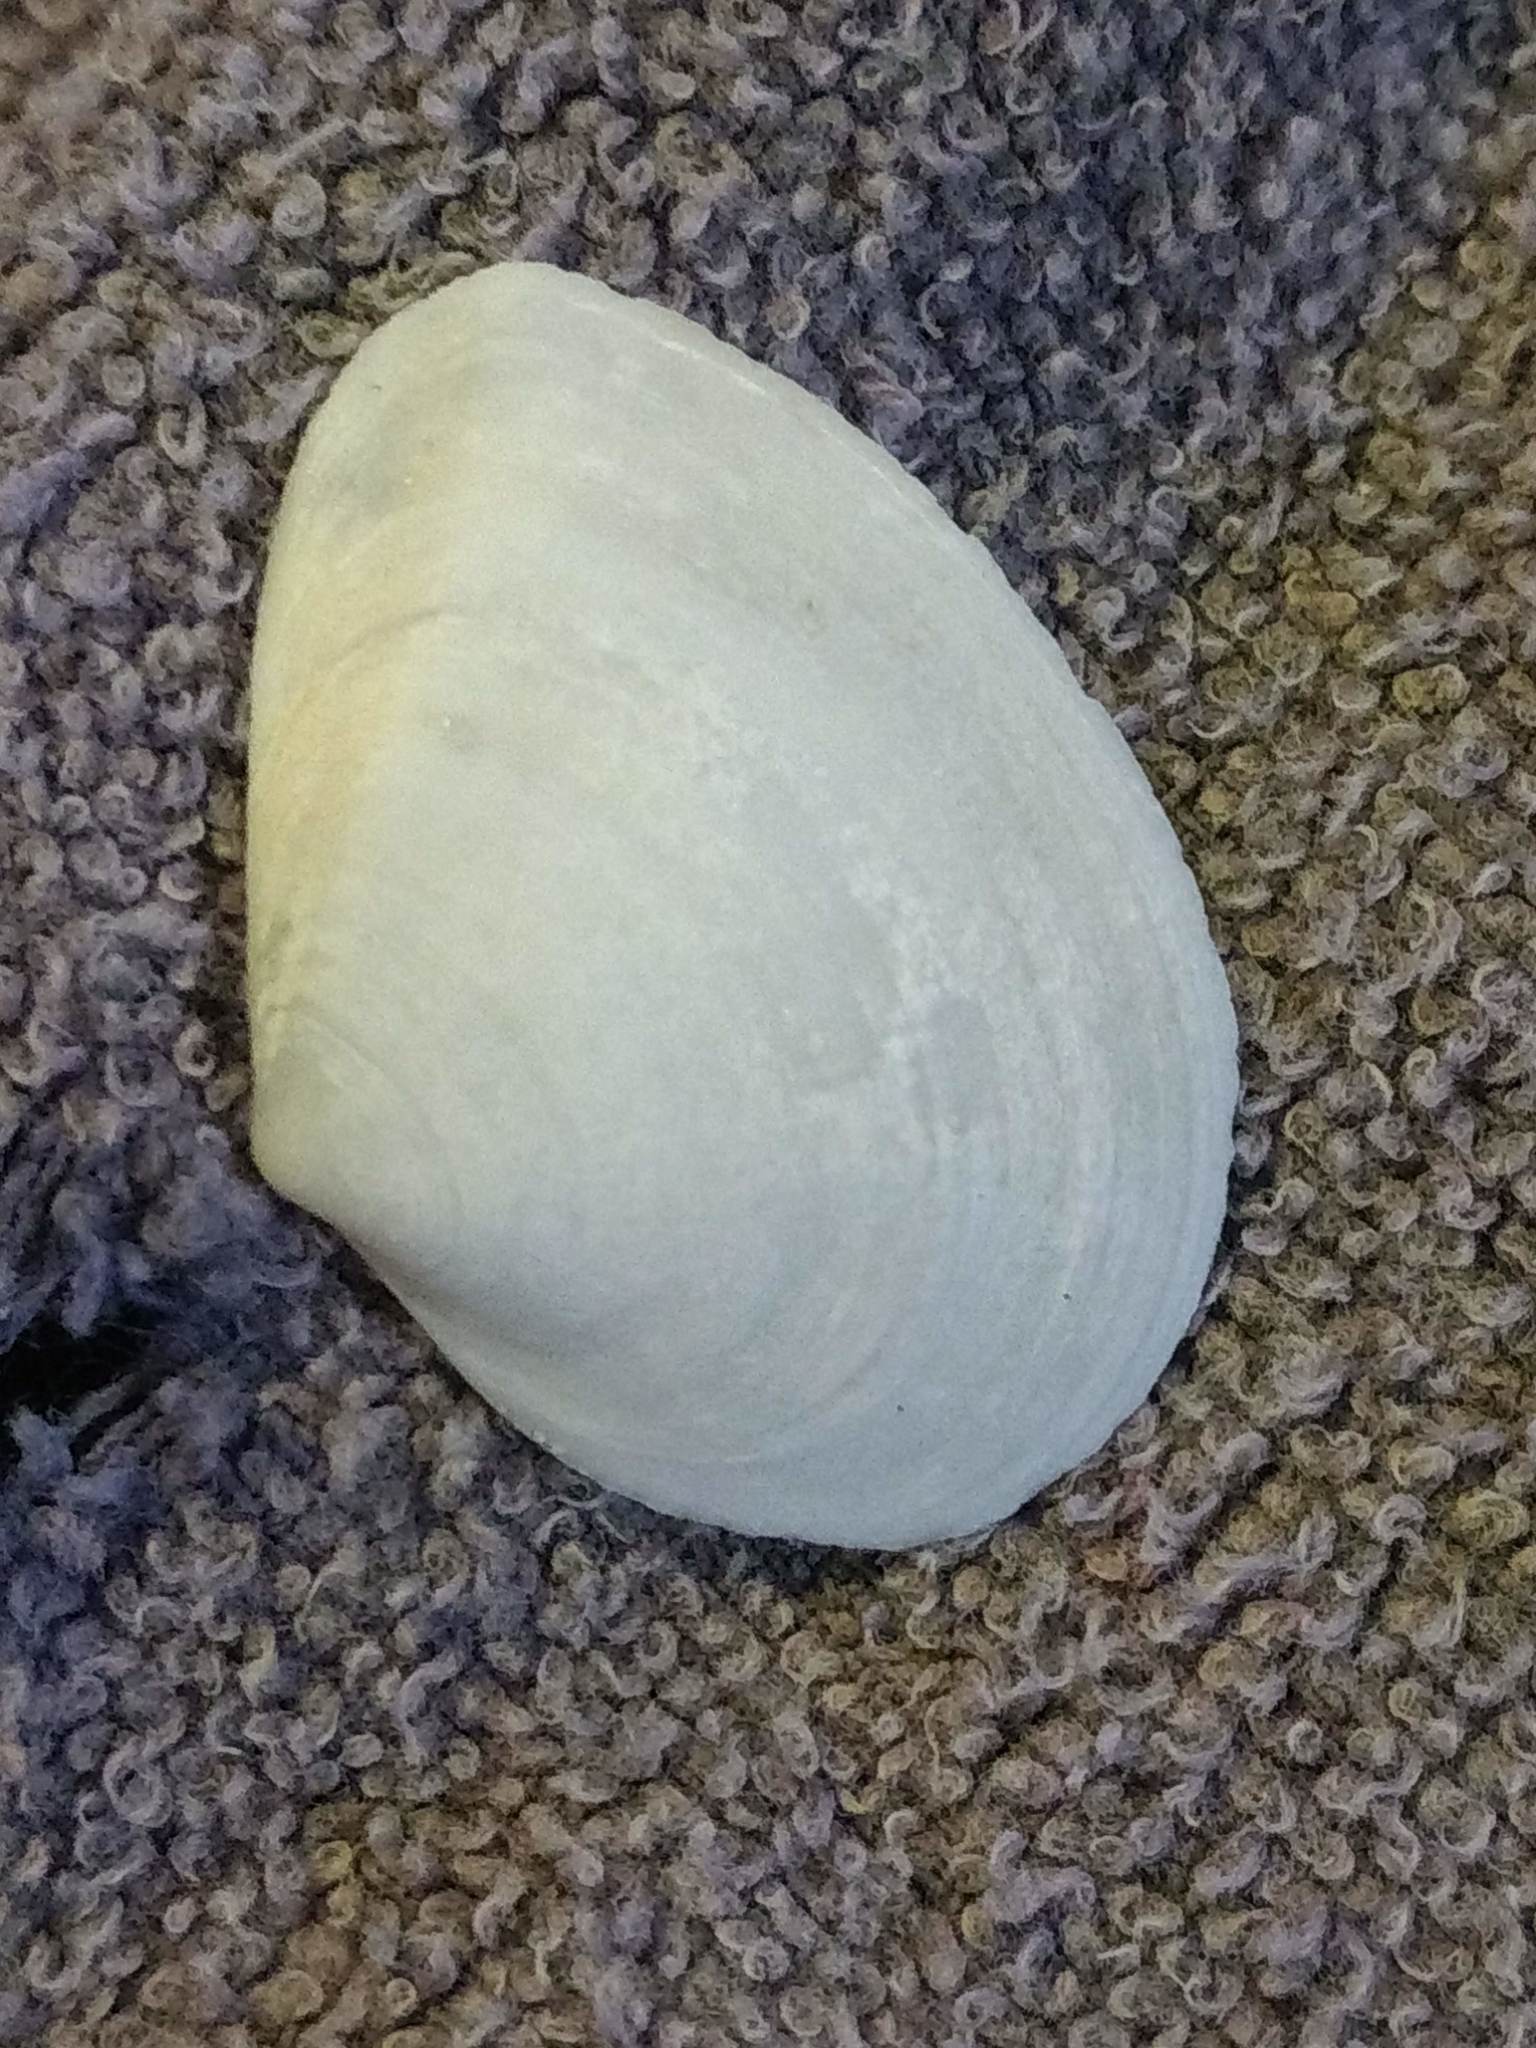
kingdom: Animalia
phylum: Mollusca
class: Bivalvia
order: Cardiida
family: Tellinidae
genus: Macoma
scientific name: Macoma nasuta
